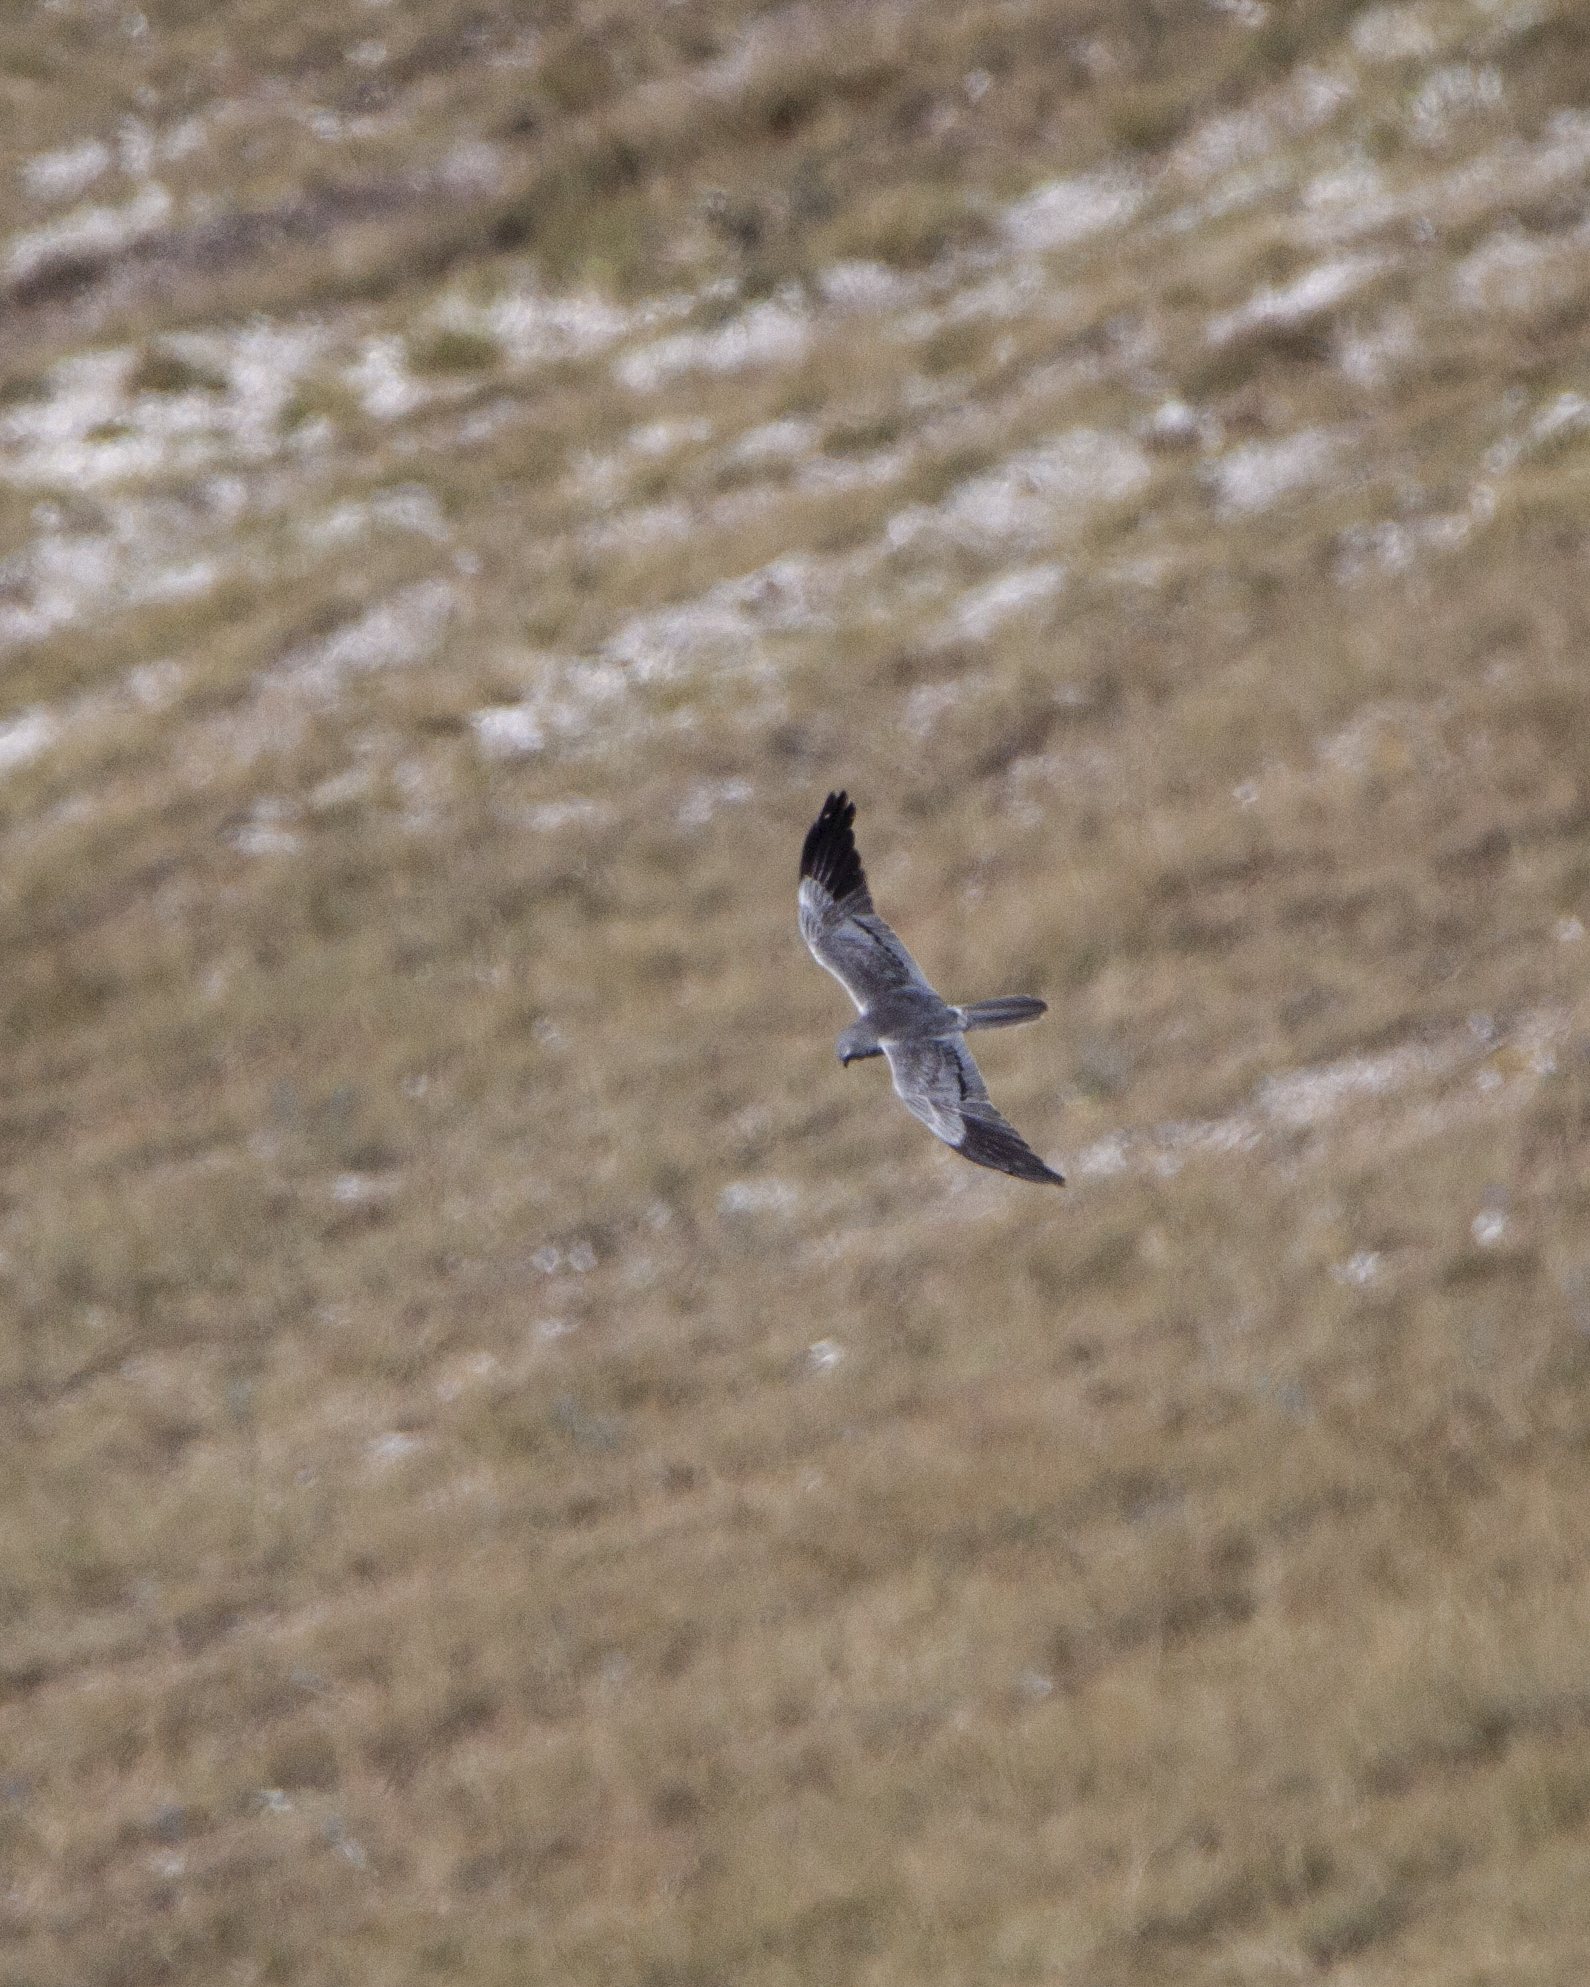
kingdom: Animalia
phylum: Chordata
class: Aves
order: Accipitriformes
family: Accipitridae
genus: Circus
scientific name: Circus pygargus
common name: Montagu's harrier
